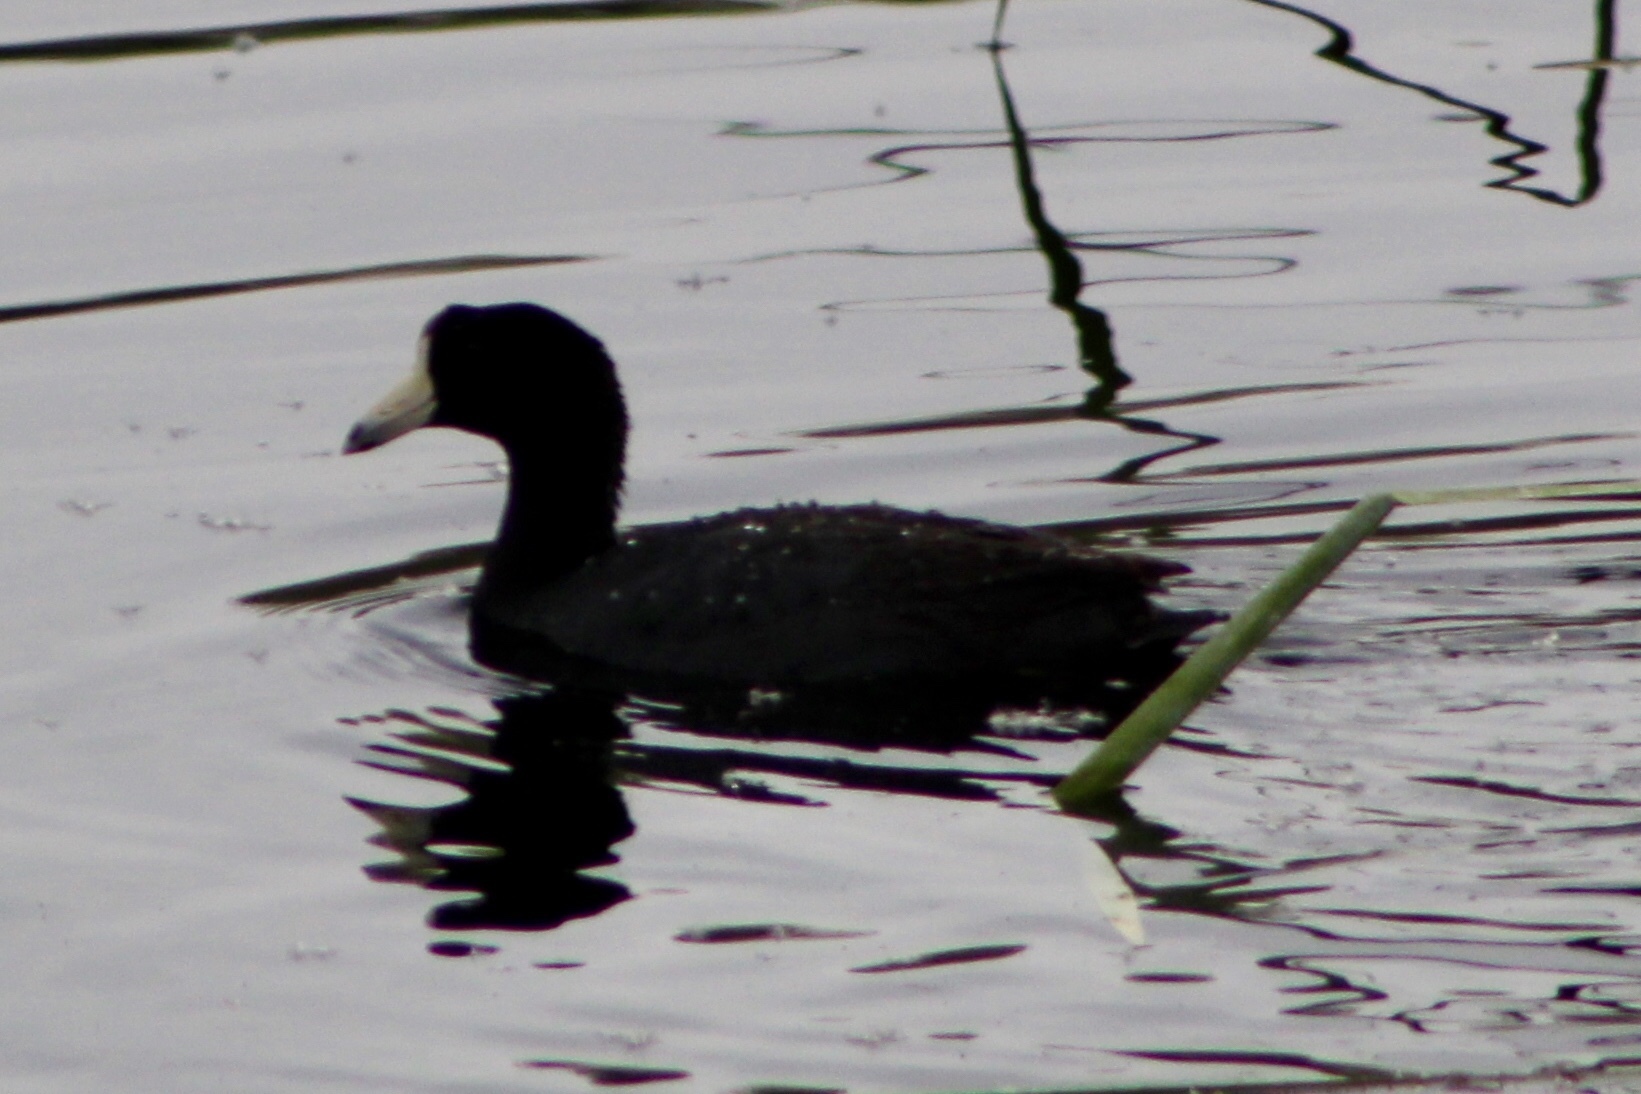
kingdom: Animalia
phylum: Chordata
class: Aves
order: Gruiformes
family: Rallidae
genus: Fulica
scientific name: Fulica americana
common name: American coot
